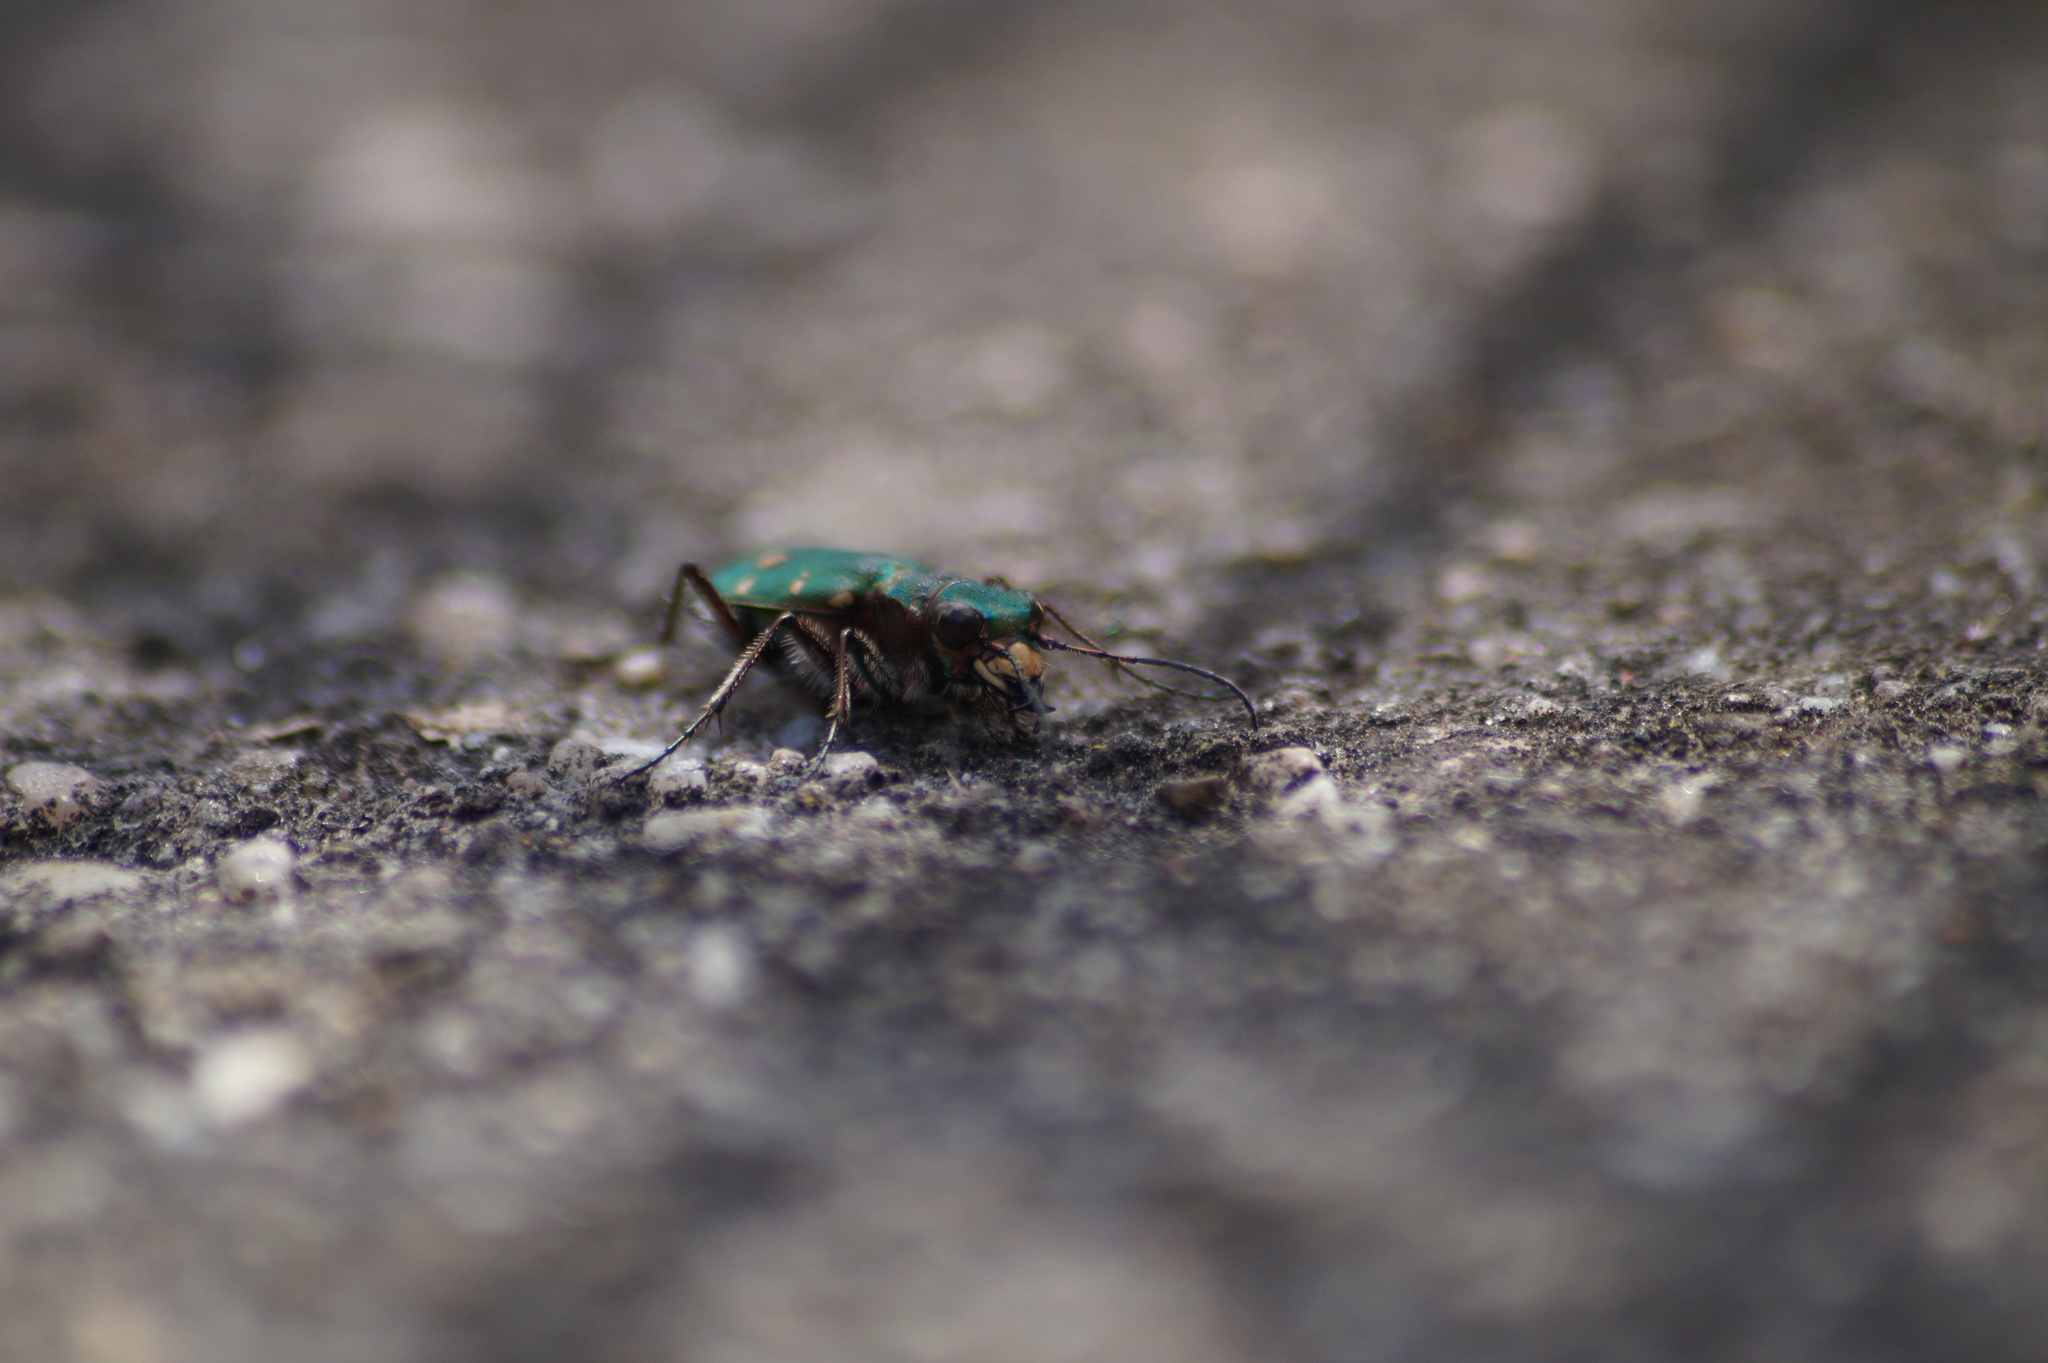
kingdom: Animalia
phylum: Arthropoda
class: Insecta
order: Coleoptera
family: Carabidae
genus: Cicindela
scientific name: Cicindela campestris
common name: Common tiger beetle
